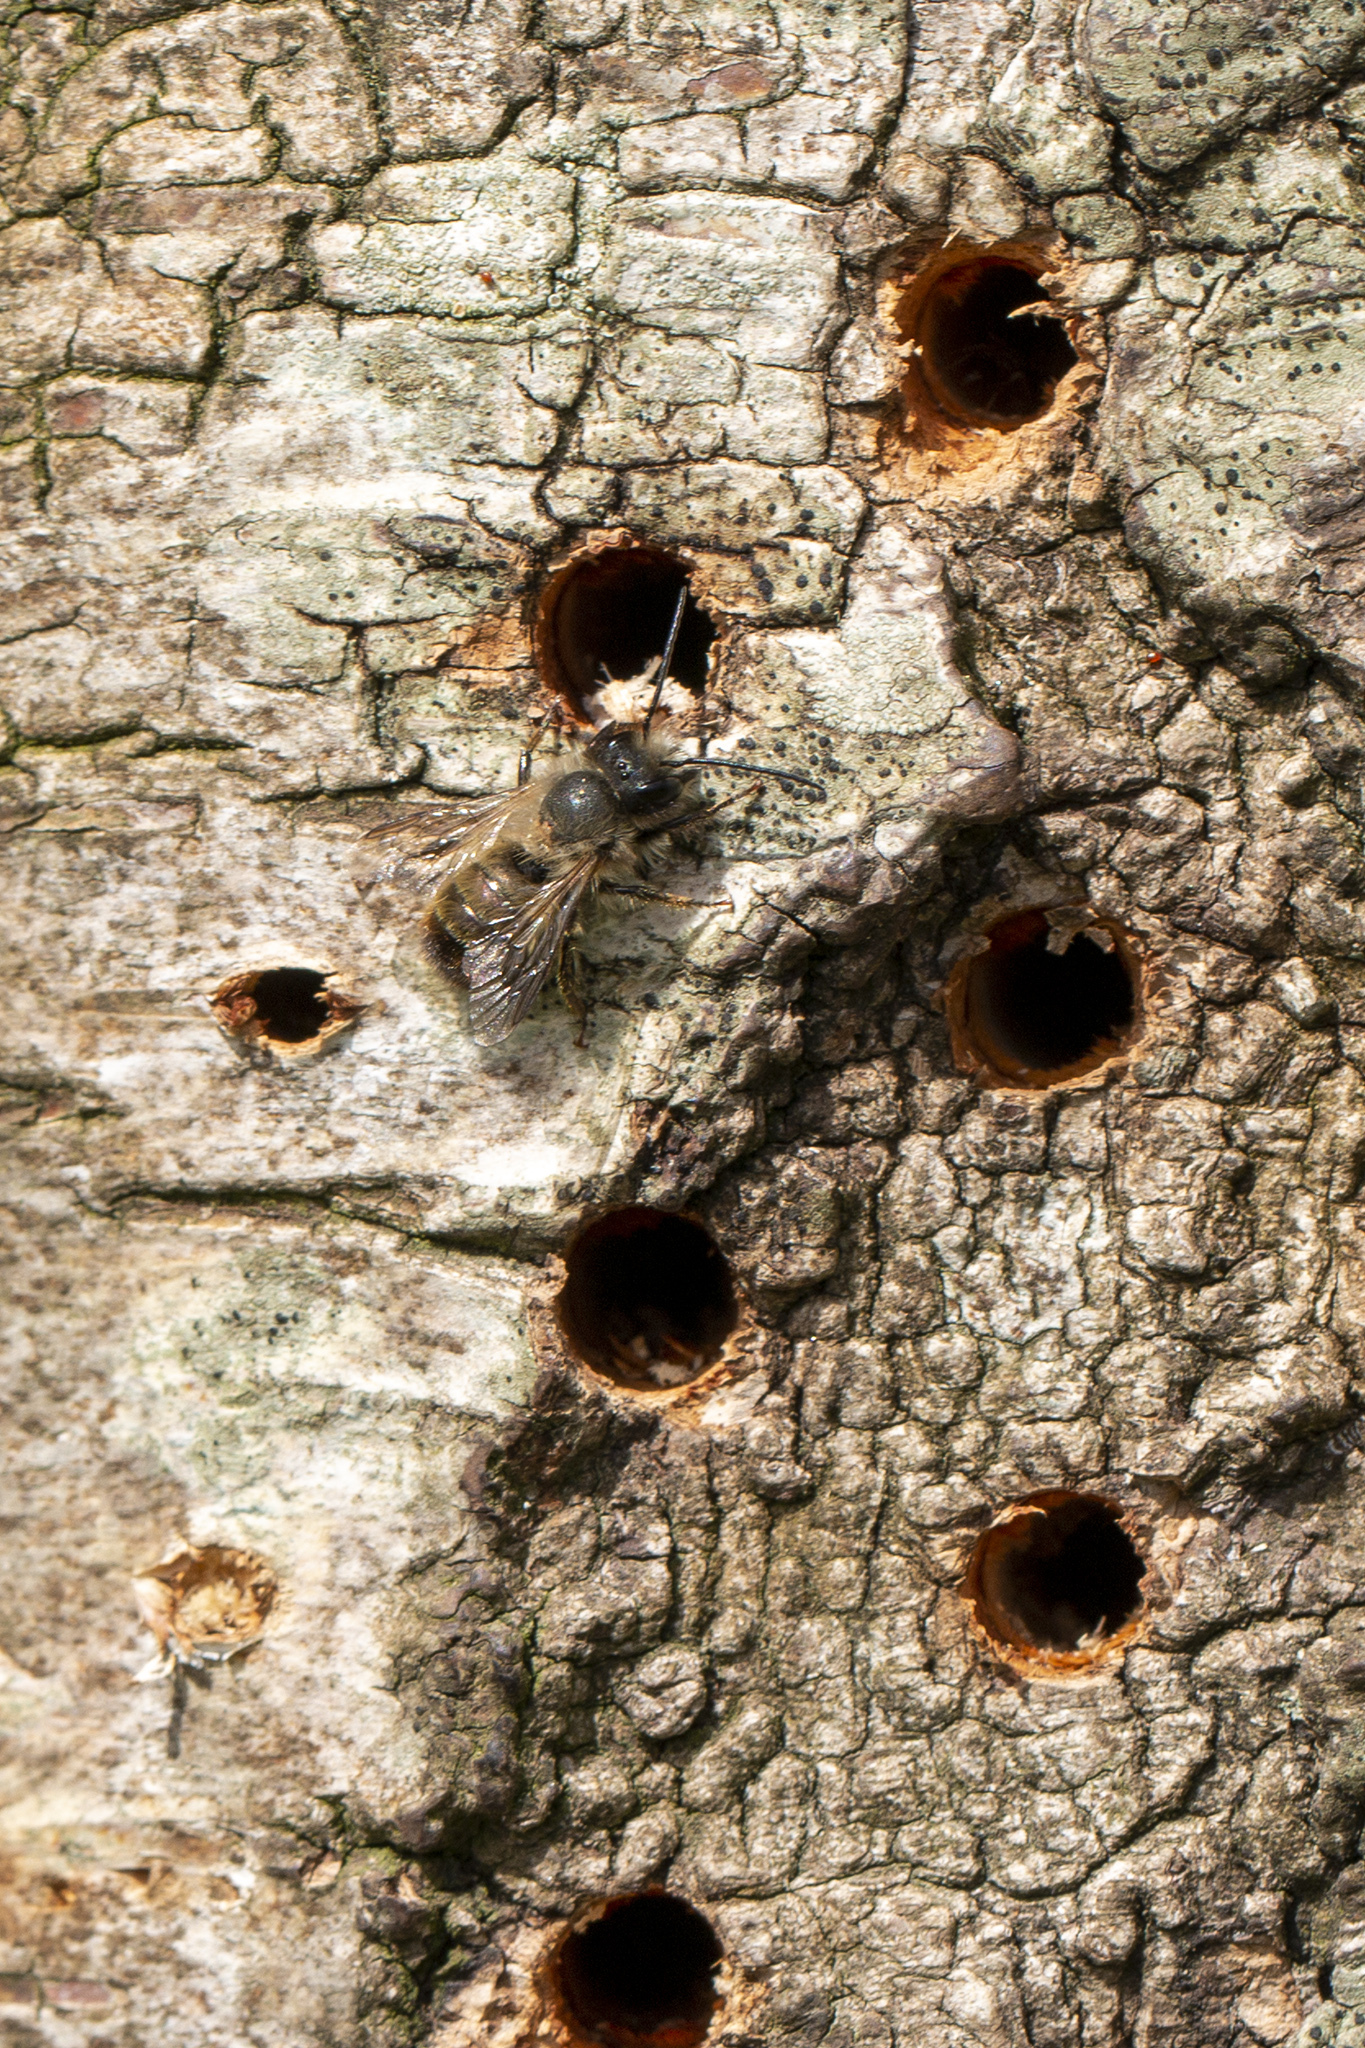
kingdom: Animalia
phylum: Arthropoda
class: Insecta
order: Hymenoptera
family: Megachilidae
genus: Osmia
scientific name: Osmia bicornis
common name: Red mason bee
